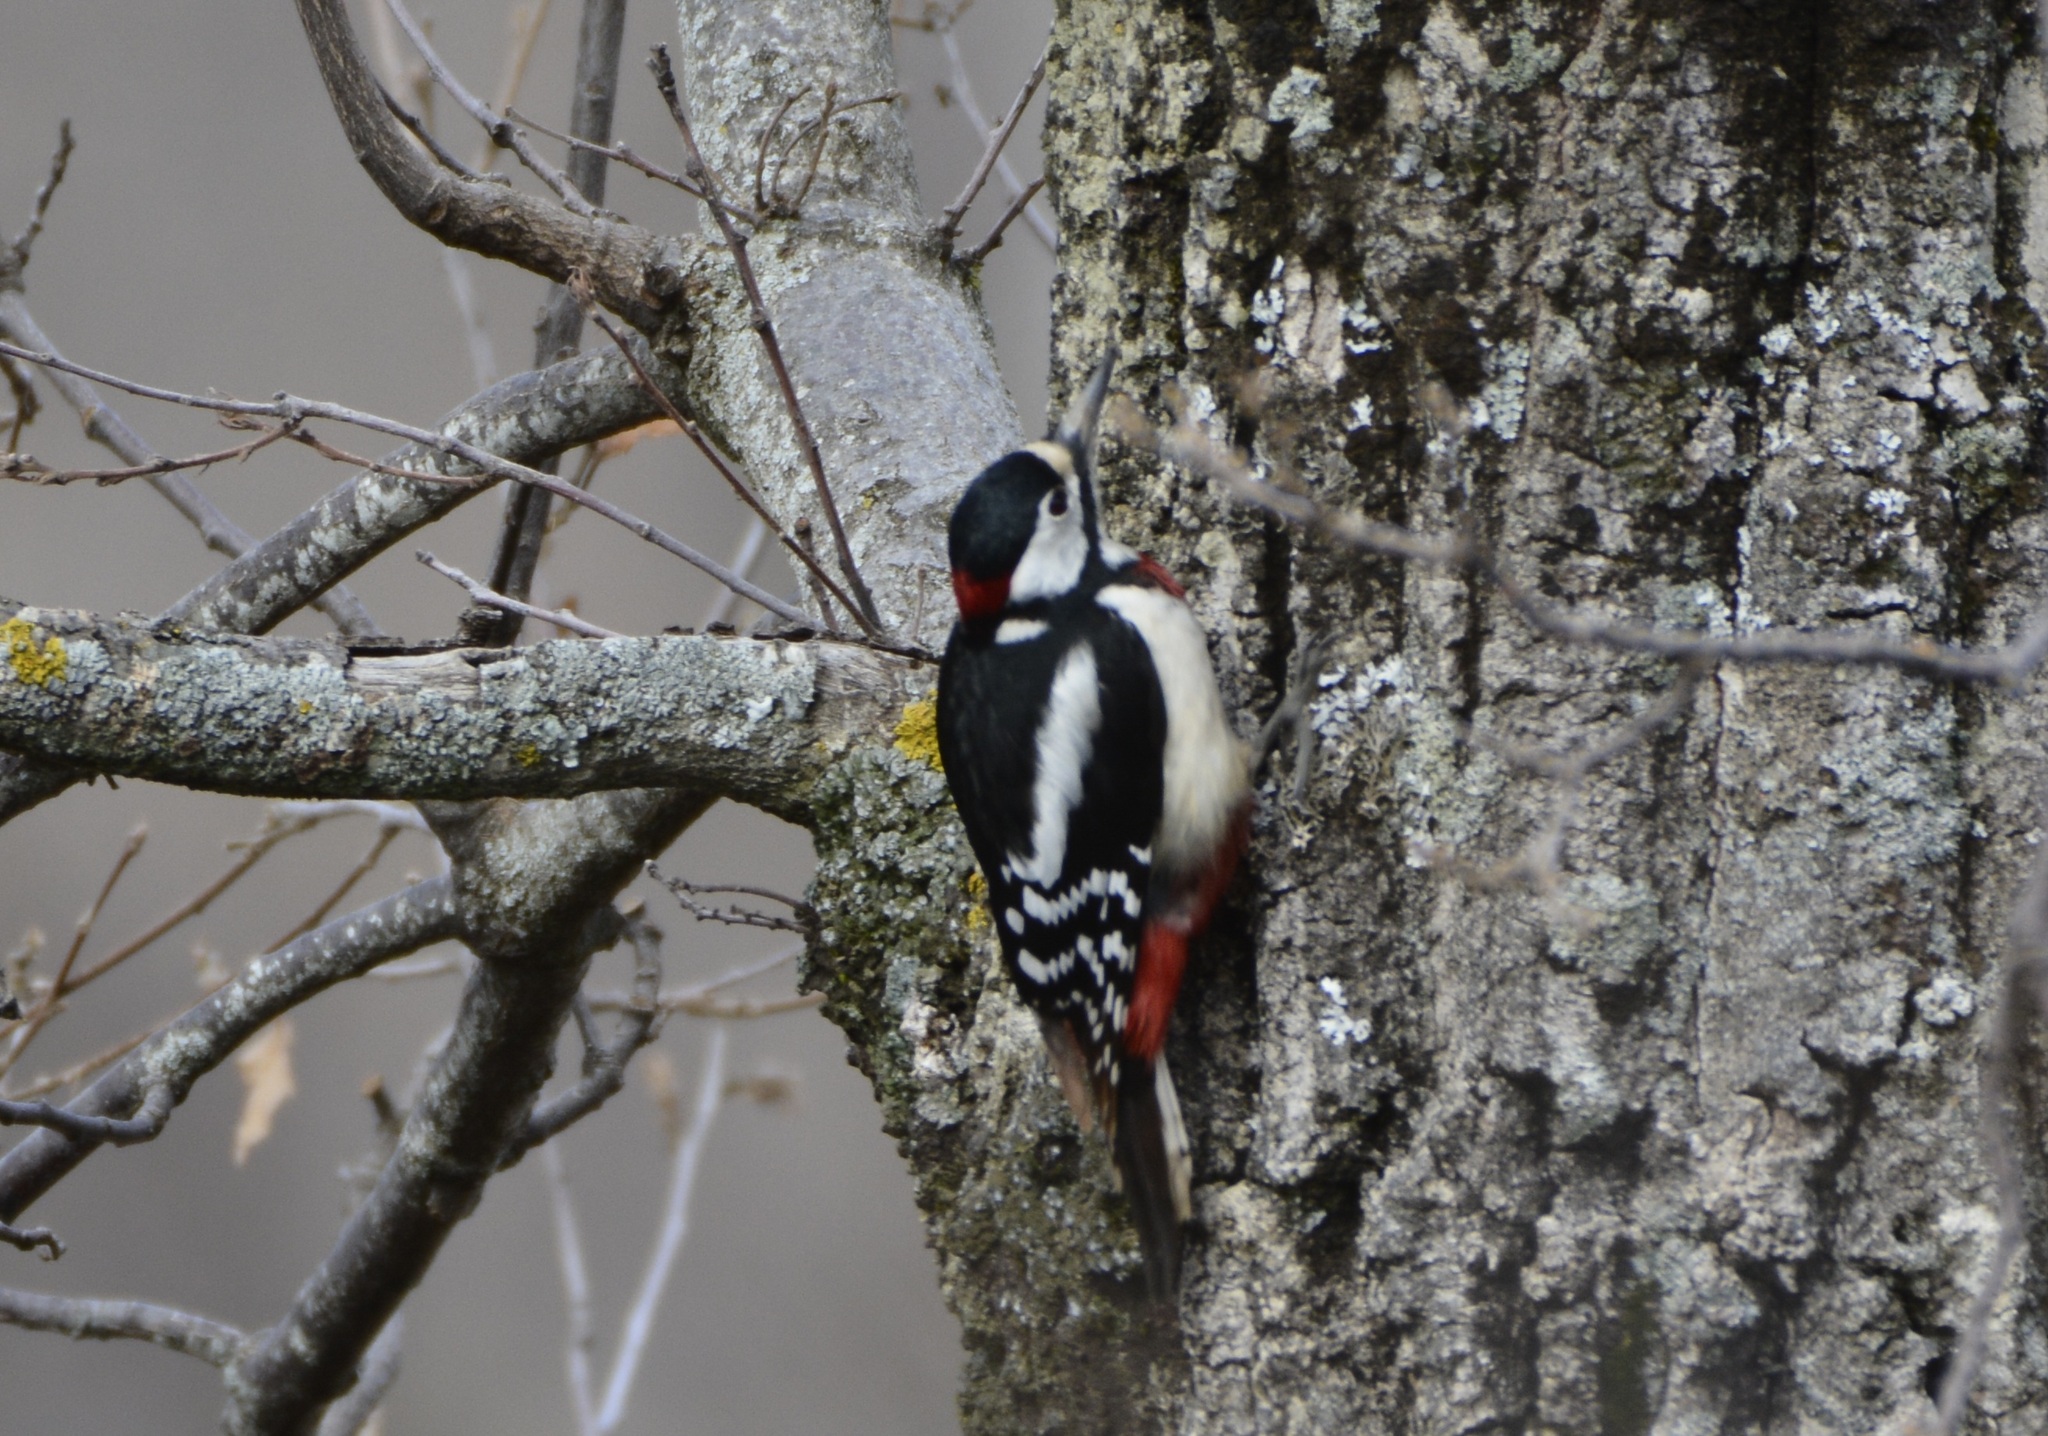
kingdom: Animalia
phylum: Chordata
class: Aves
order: Piciformes
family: Picidae
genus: Dendrocopos
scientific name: Dendrocopos major
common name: Great spotted woodpecker
